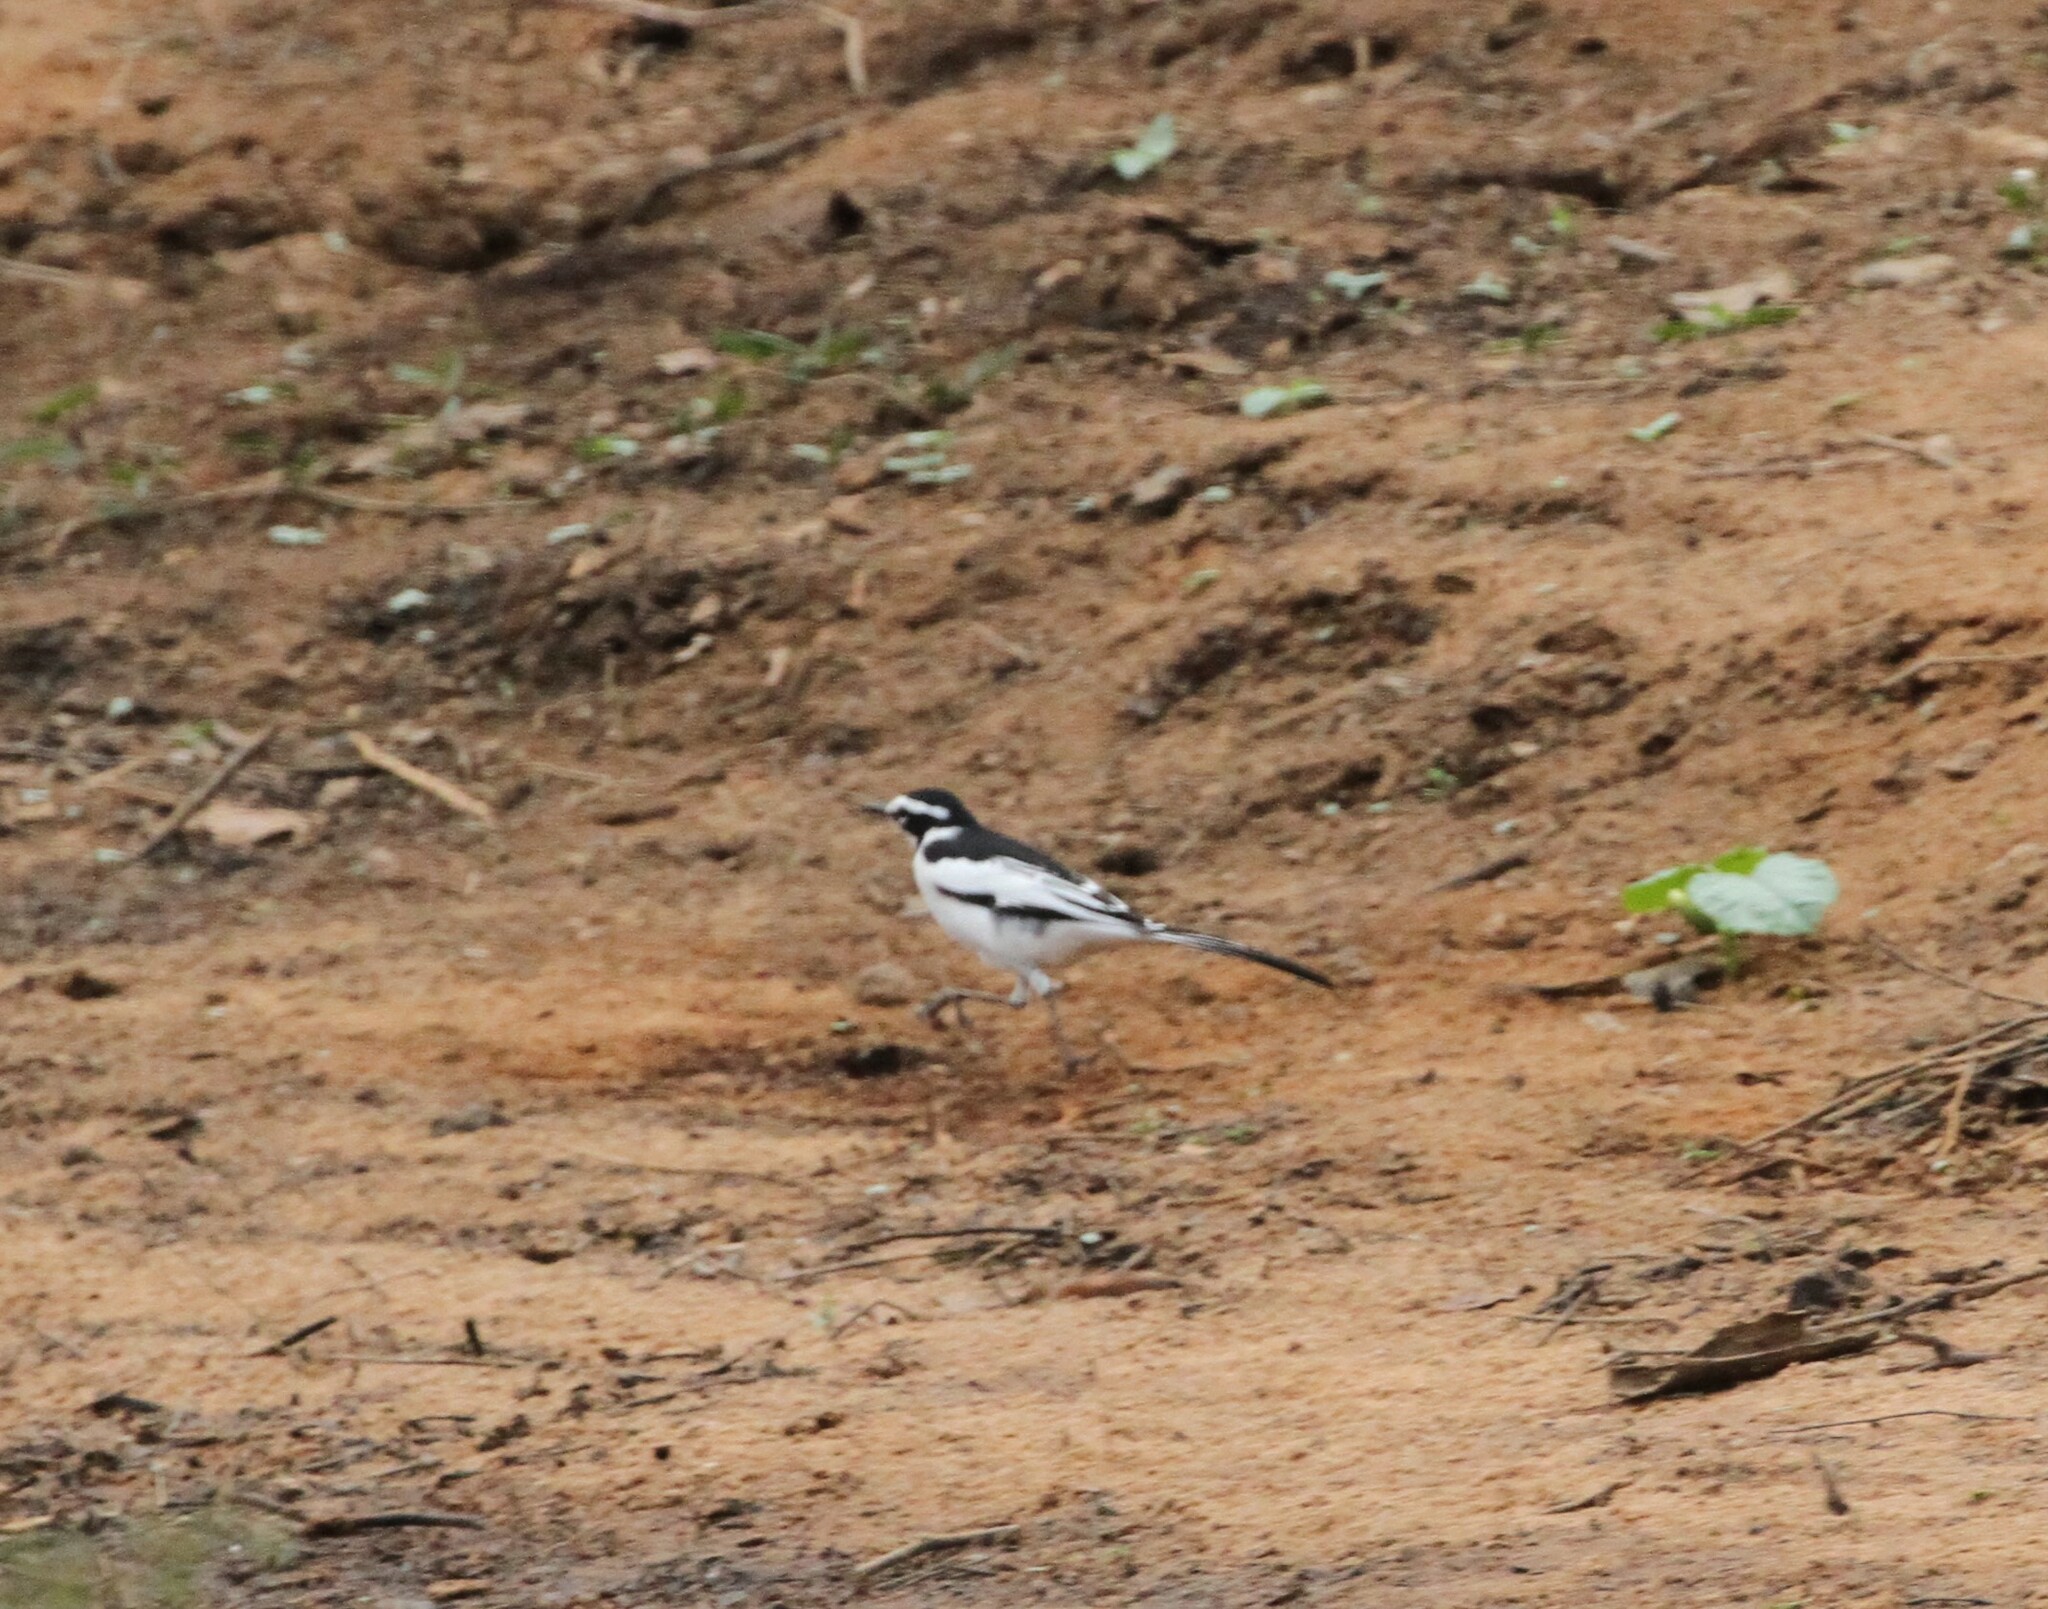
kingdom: Animalia
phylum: Chordata
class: Aves
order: Passeriformes
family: Motacillidae
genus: Motacilla
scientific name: Motacilla aguimp
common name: African pied wagtail
